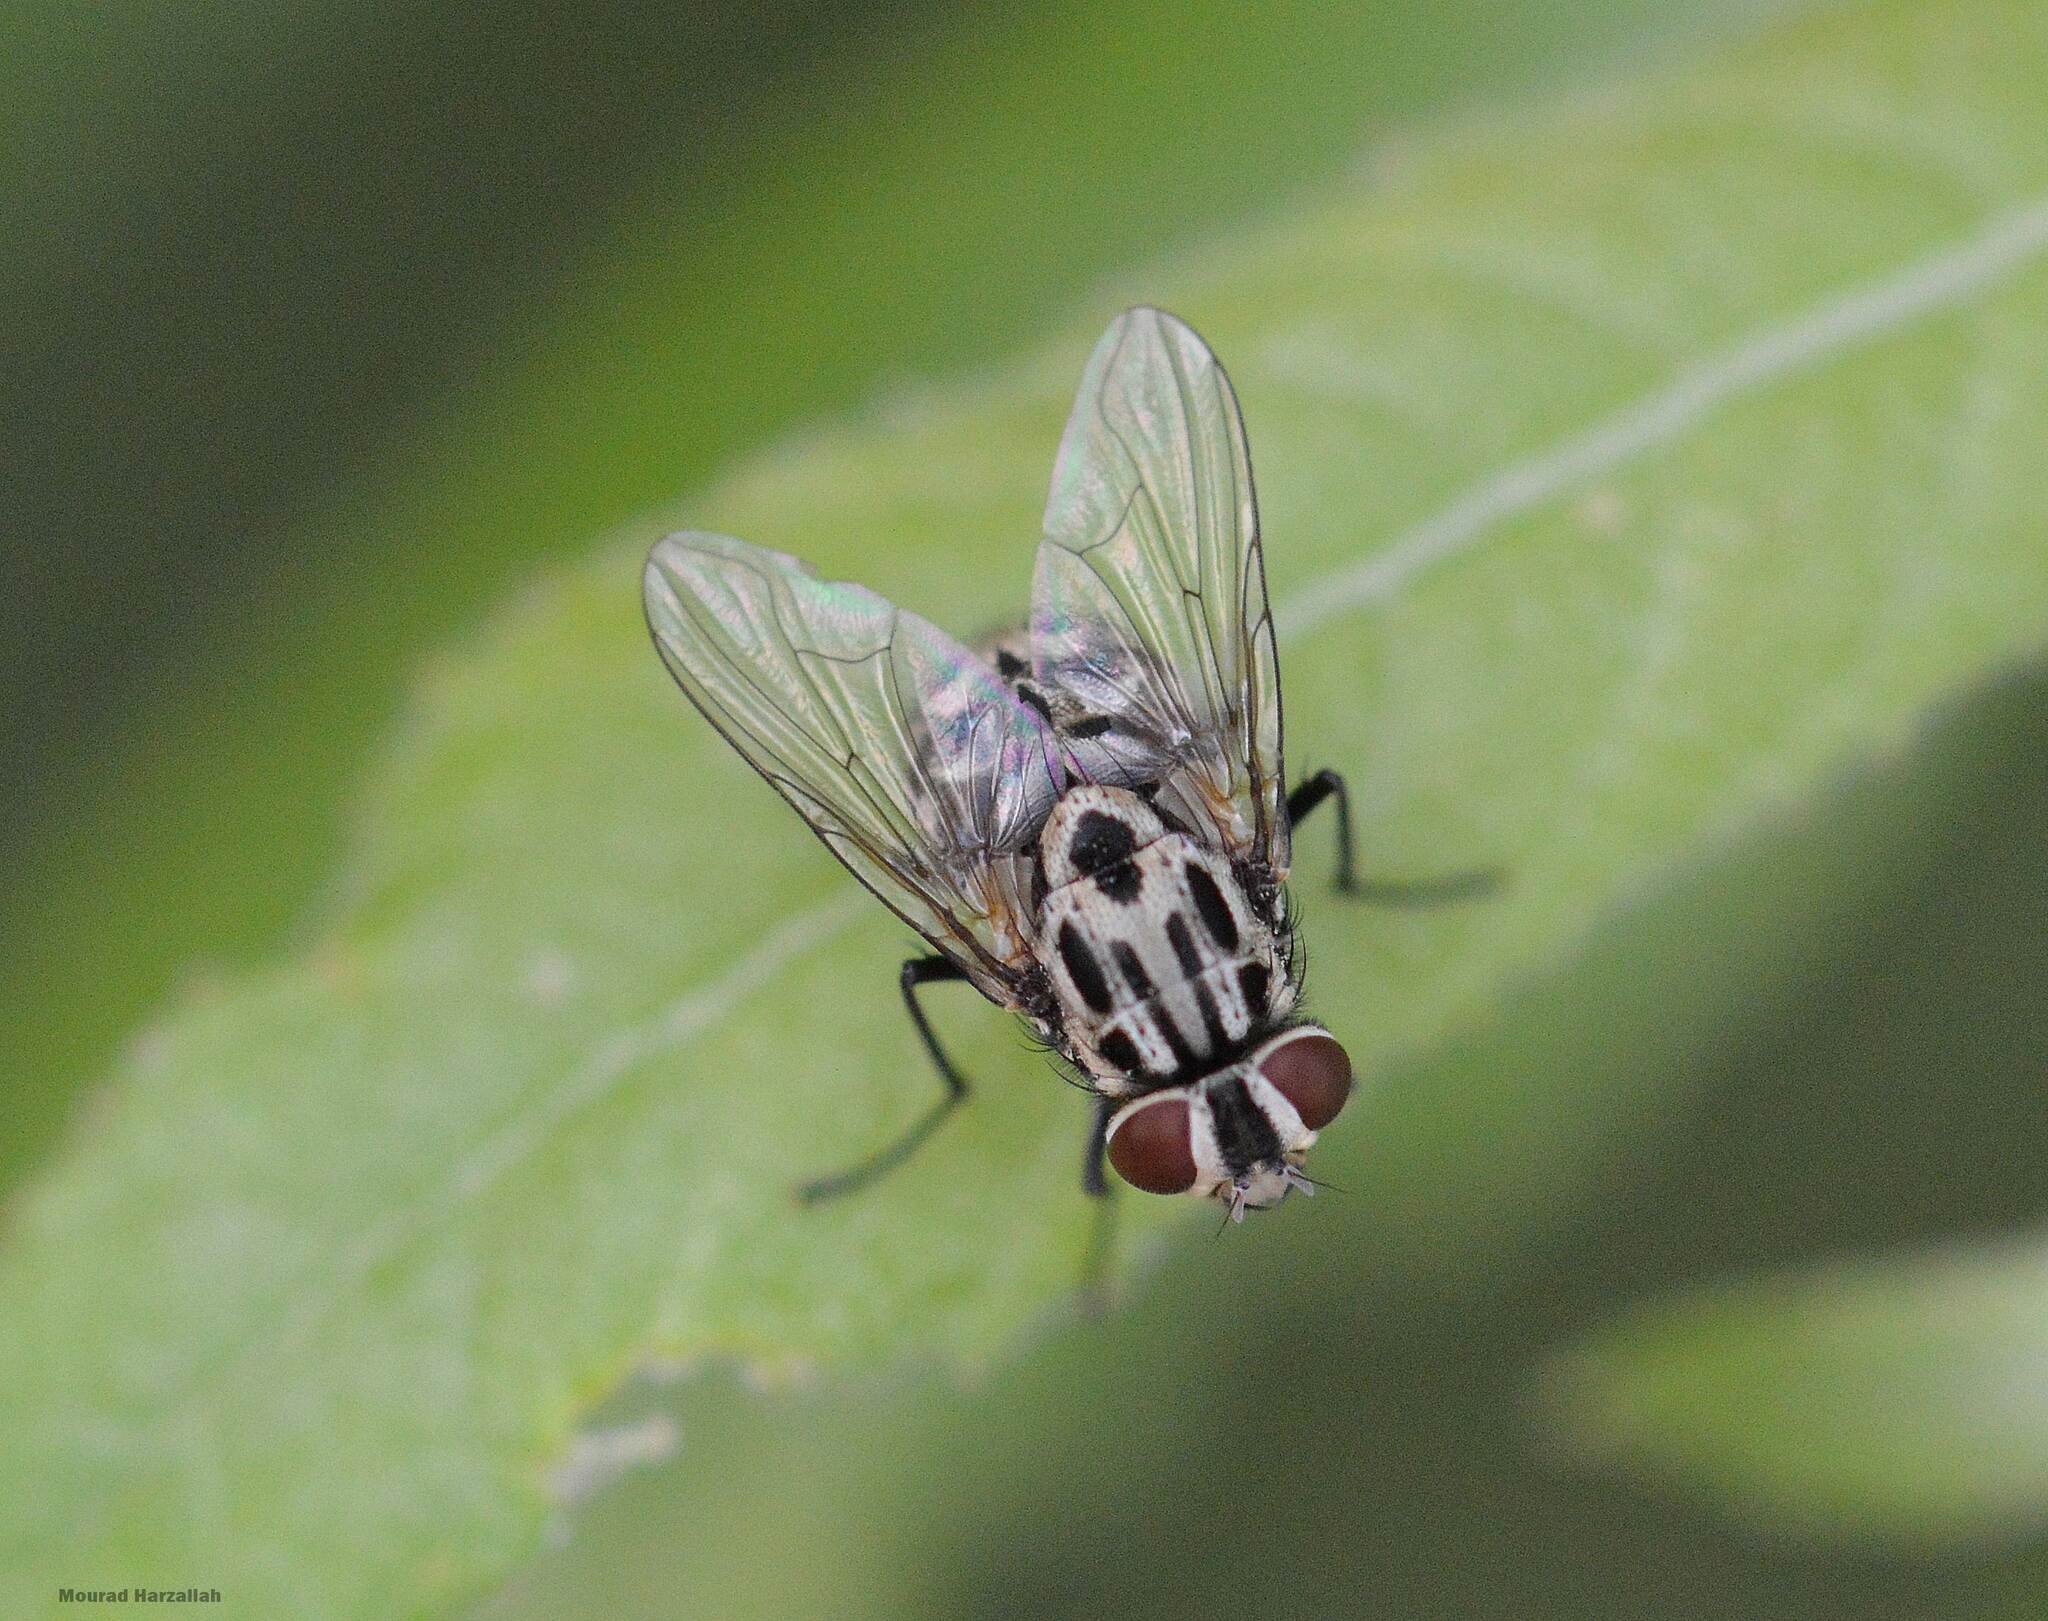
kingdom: Animalia
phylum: Arthropoda
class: Insecta
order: Diptera
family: Muscidae
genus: Graphomya
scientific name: Graphomya maculata
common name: Muscid fly
